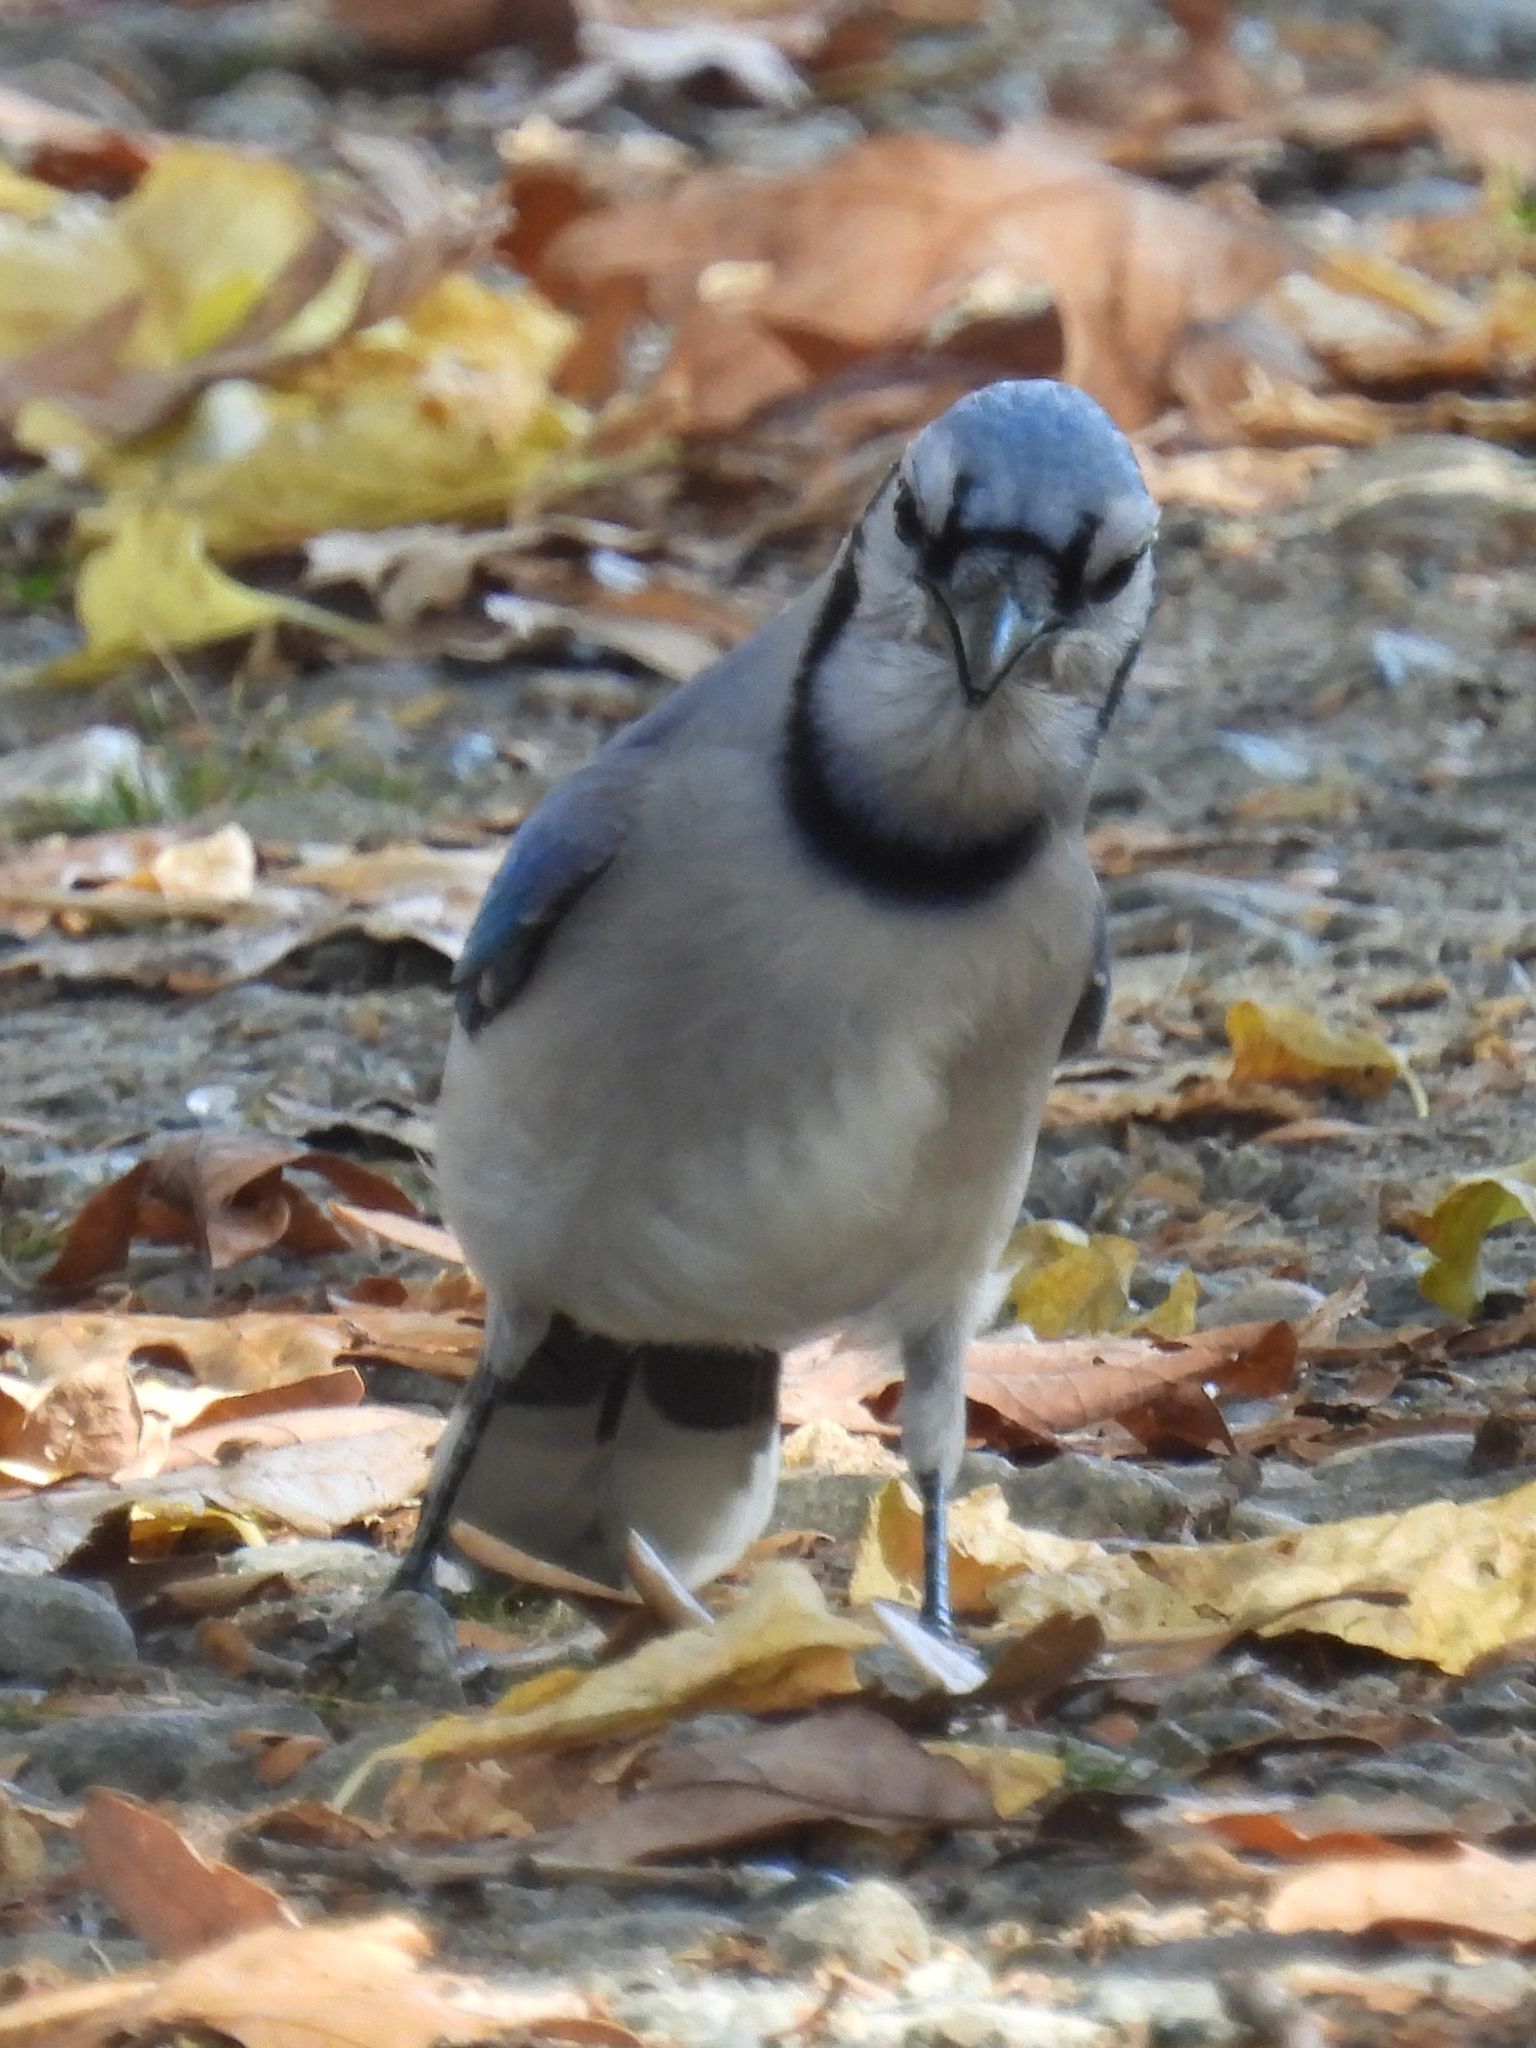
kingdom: Animalia
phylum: Chordata
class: Aves
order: Passeriformes
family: Corvidae
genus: Cyanocitta
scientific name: Cyanocitta cristata
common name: Blue jay
